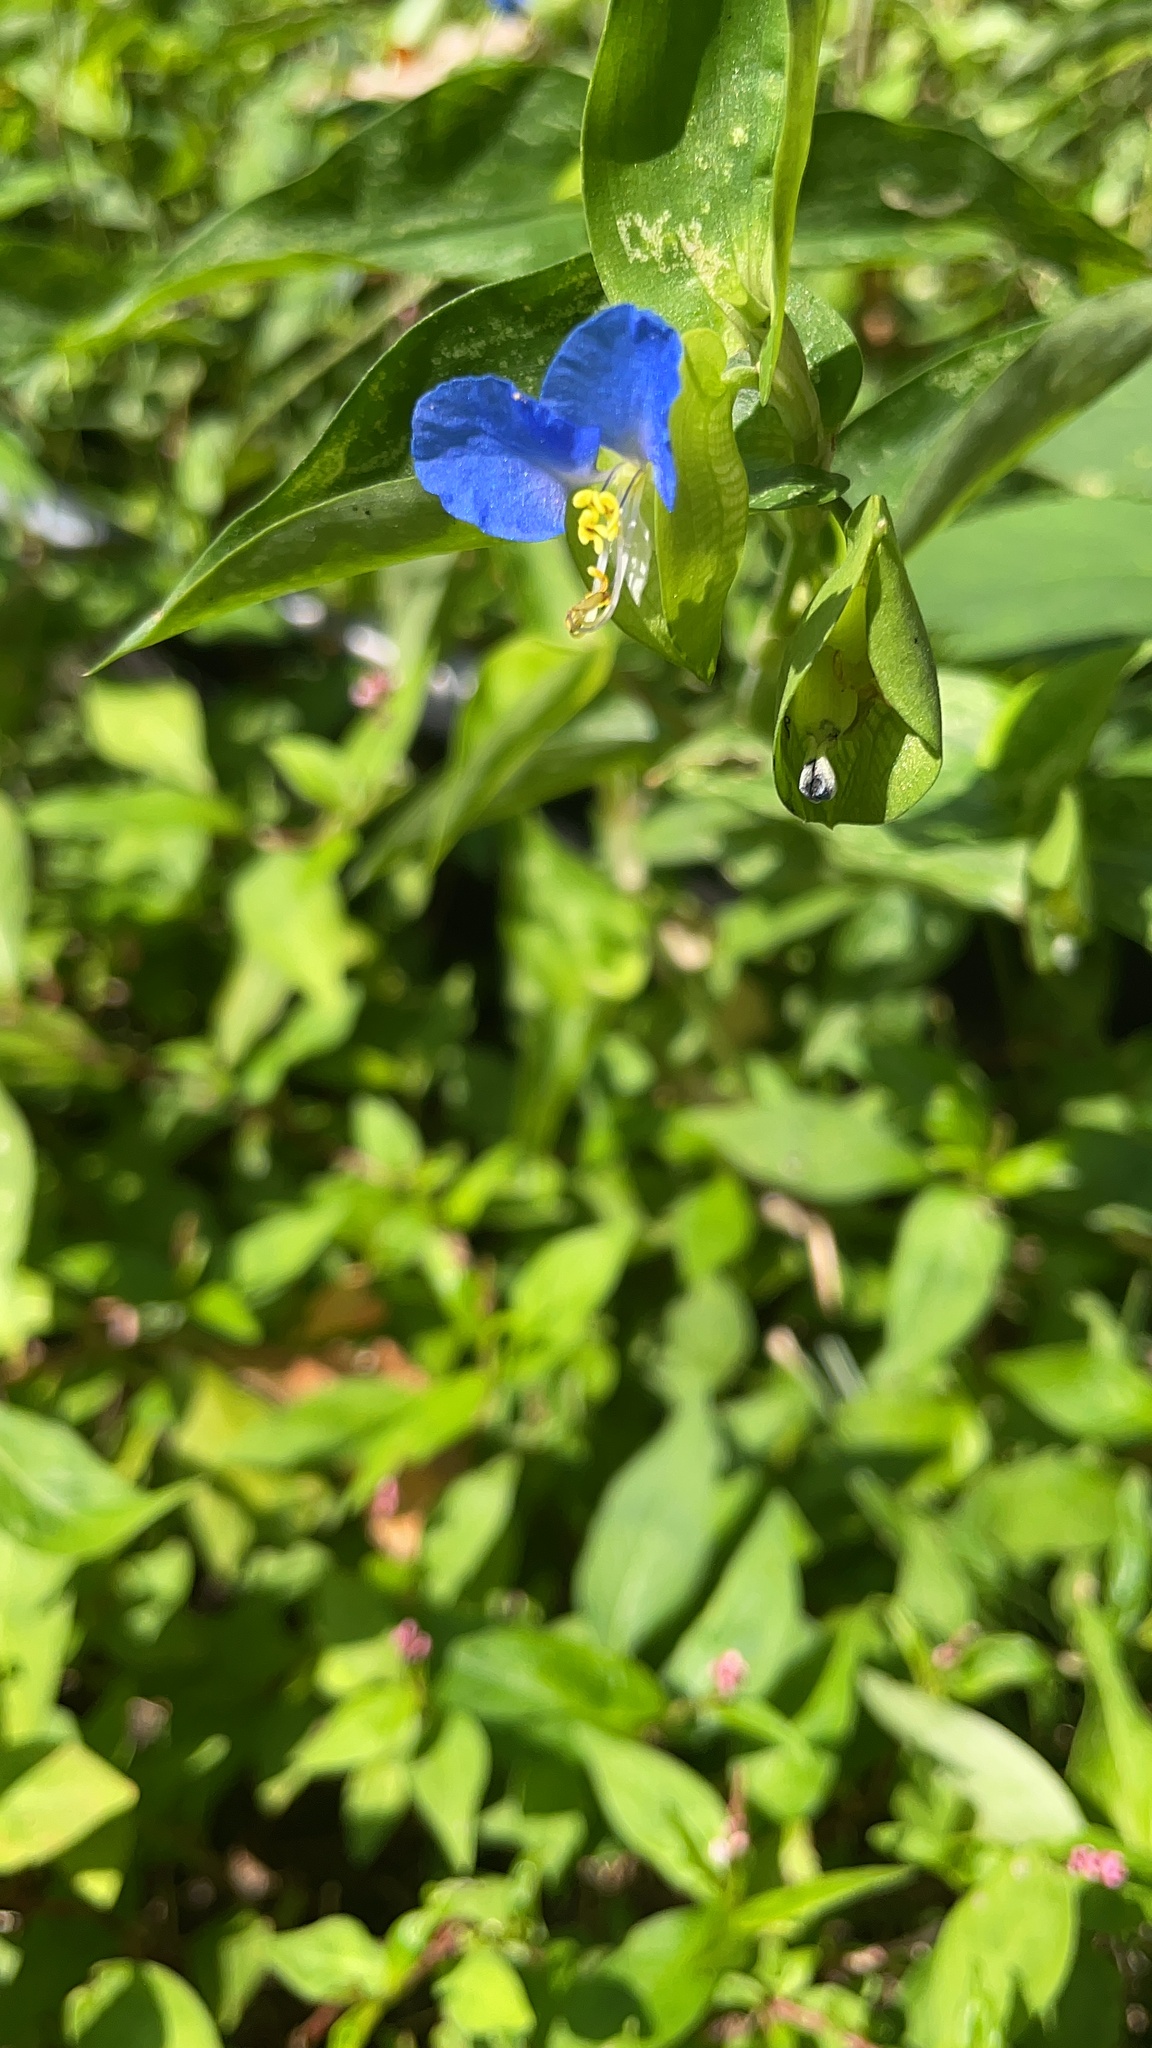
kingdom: Plantae
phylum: Tracheophyta
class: Liliopsida
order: Commelinales
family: Commelinaceae
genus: Commelina
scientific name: Commelina communis
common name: Asiatic dayflower
